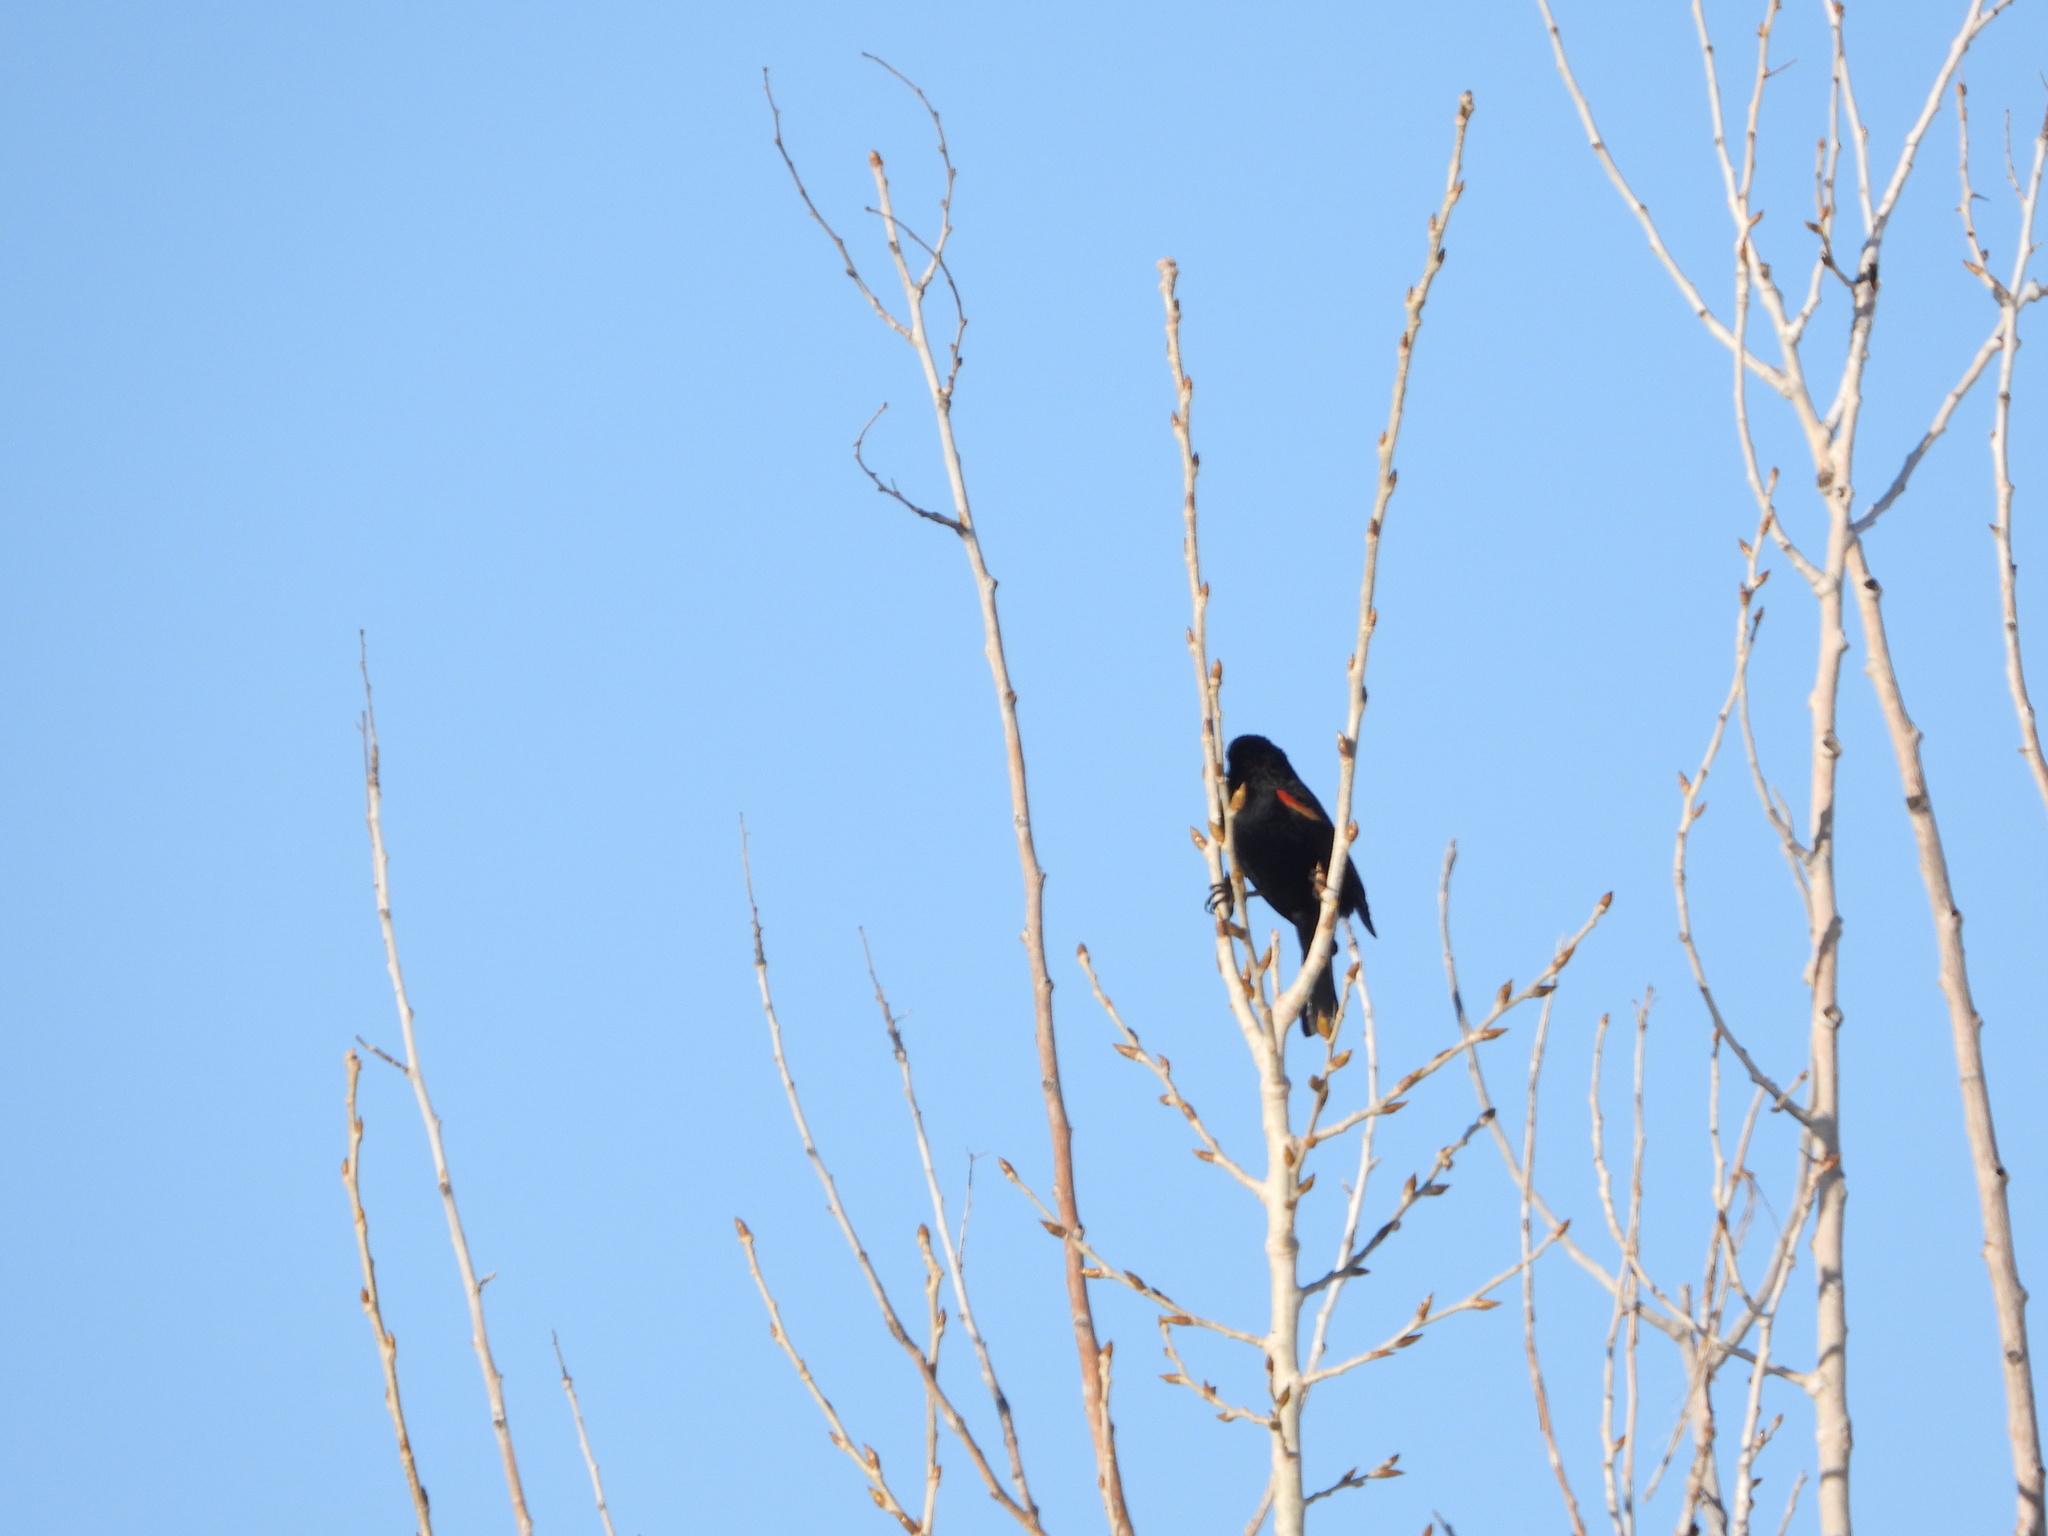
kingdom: Animalia
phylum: Chordata
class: Aves
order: Passeriformes
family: Icteridae
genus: Agelaius
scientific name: Agelaius phoeniceus
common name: Red-winged blackbird
